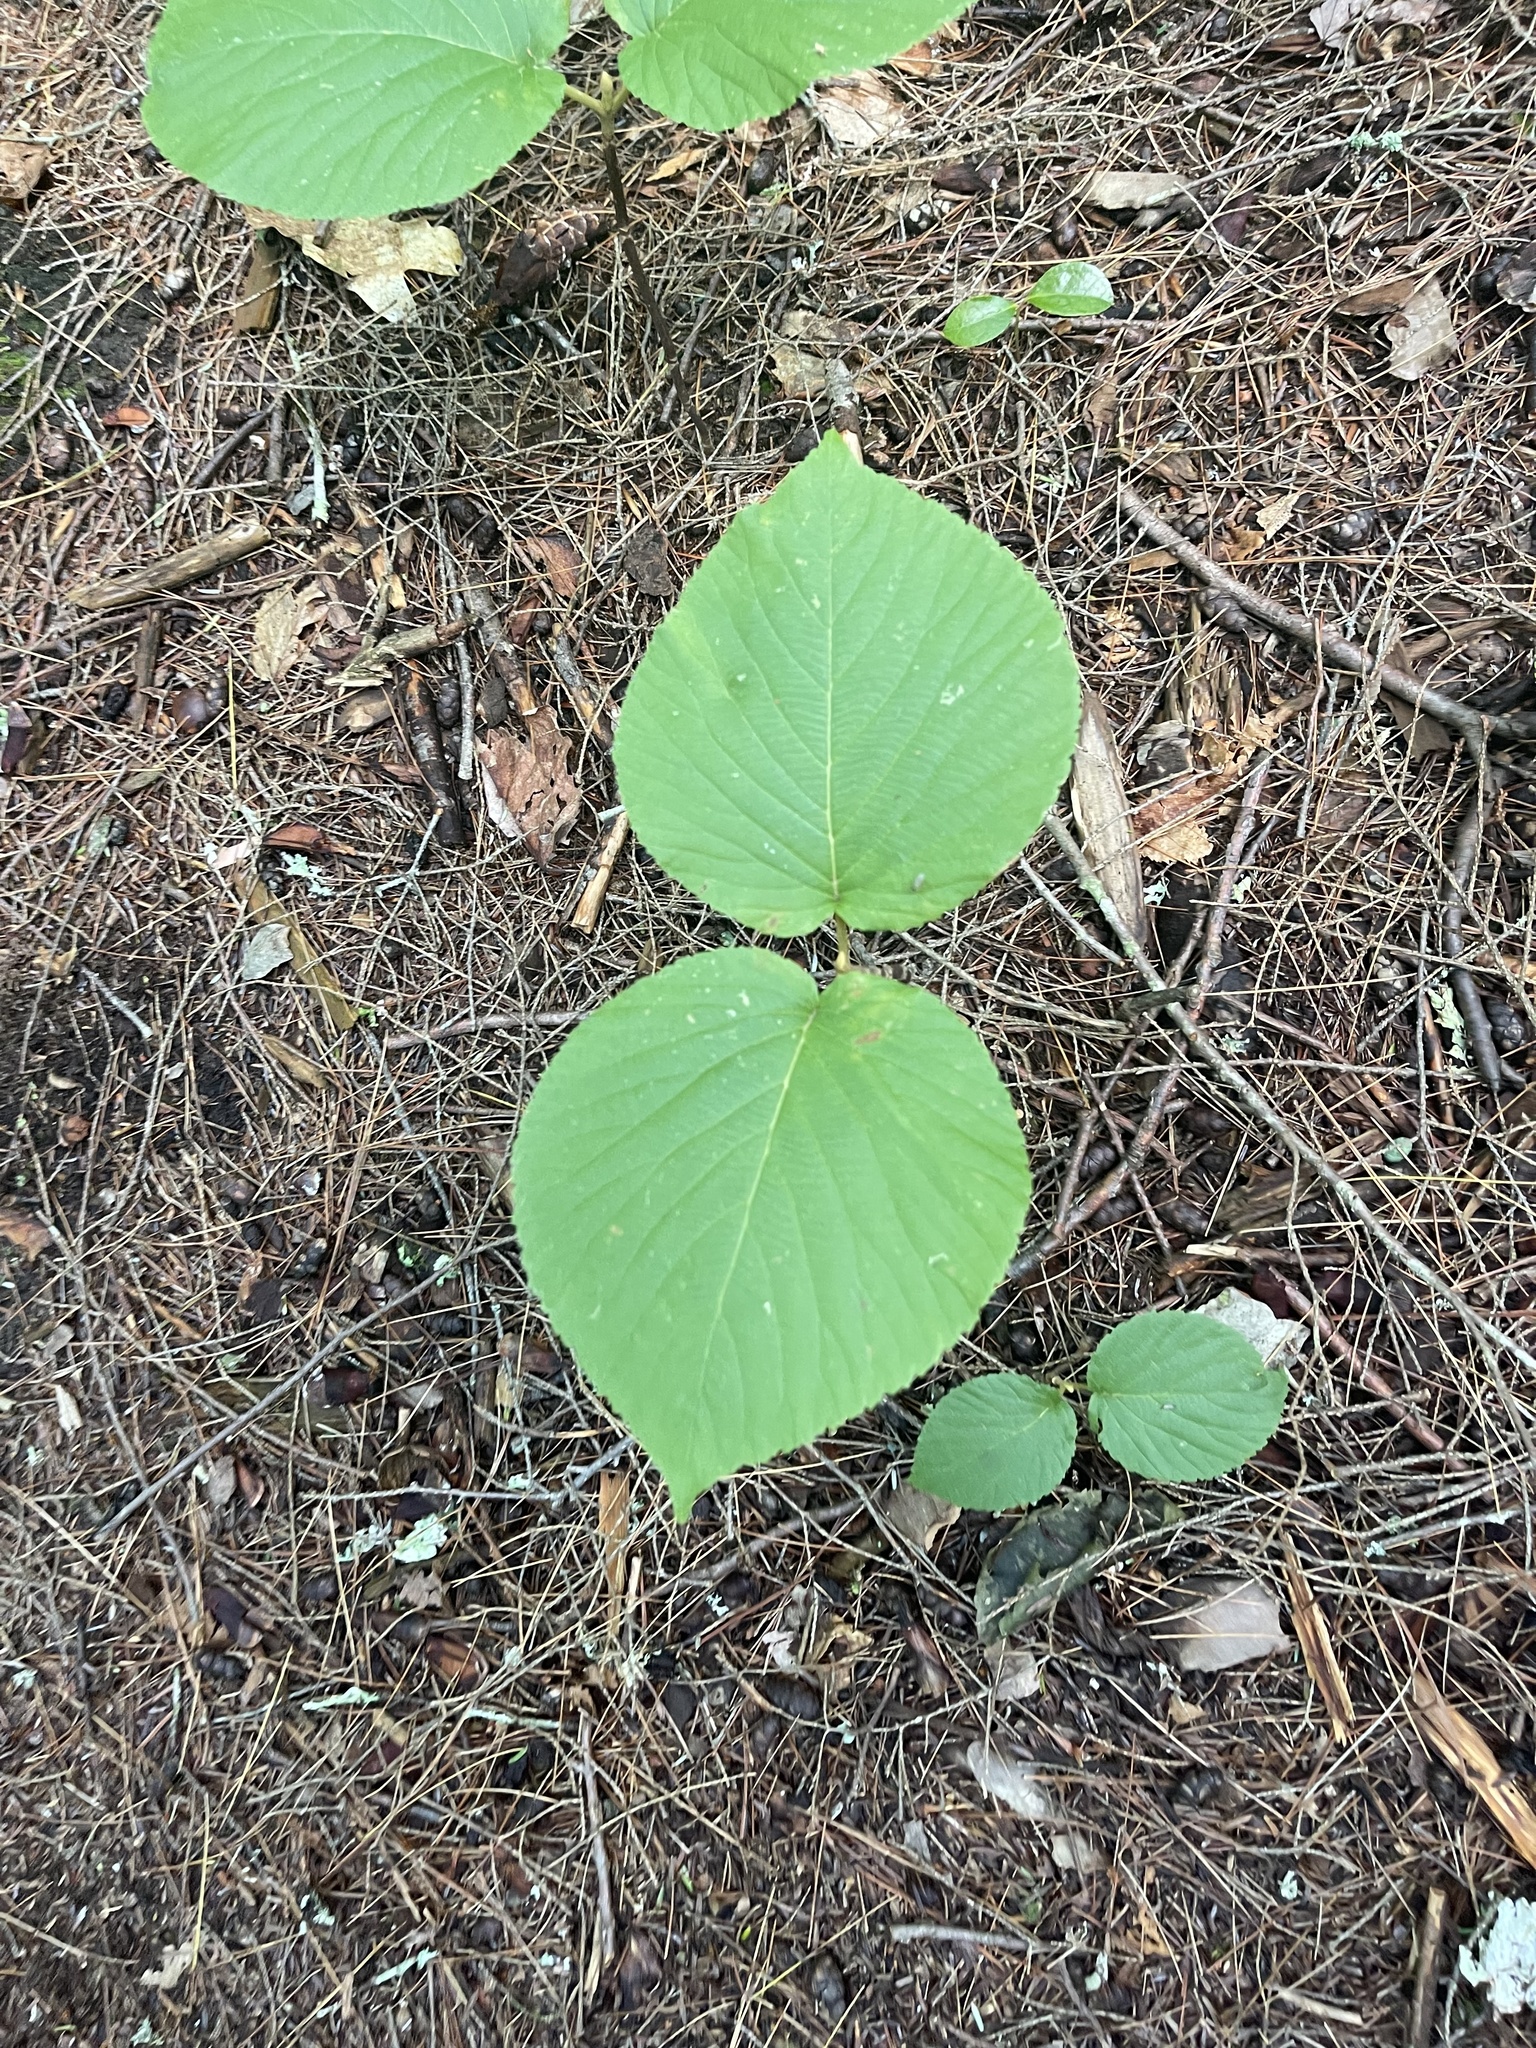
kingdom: Plantae
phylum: Tracheophyta
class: Magnoliopsida
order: Dipsacales
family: Viburnaceae
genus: Viburnum
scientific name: Viburnum lantanoides
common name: Hobblebush
